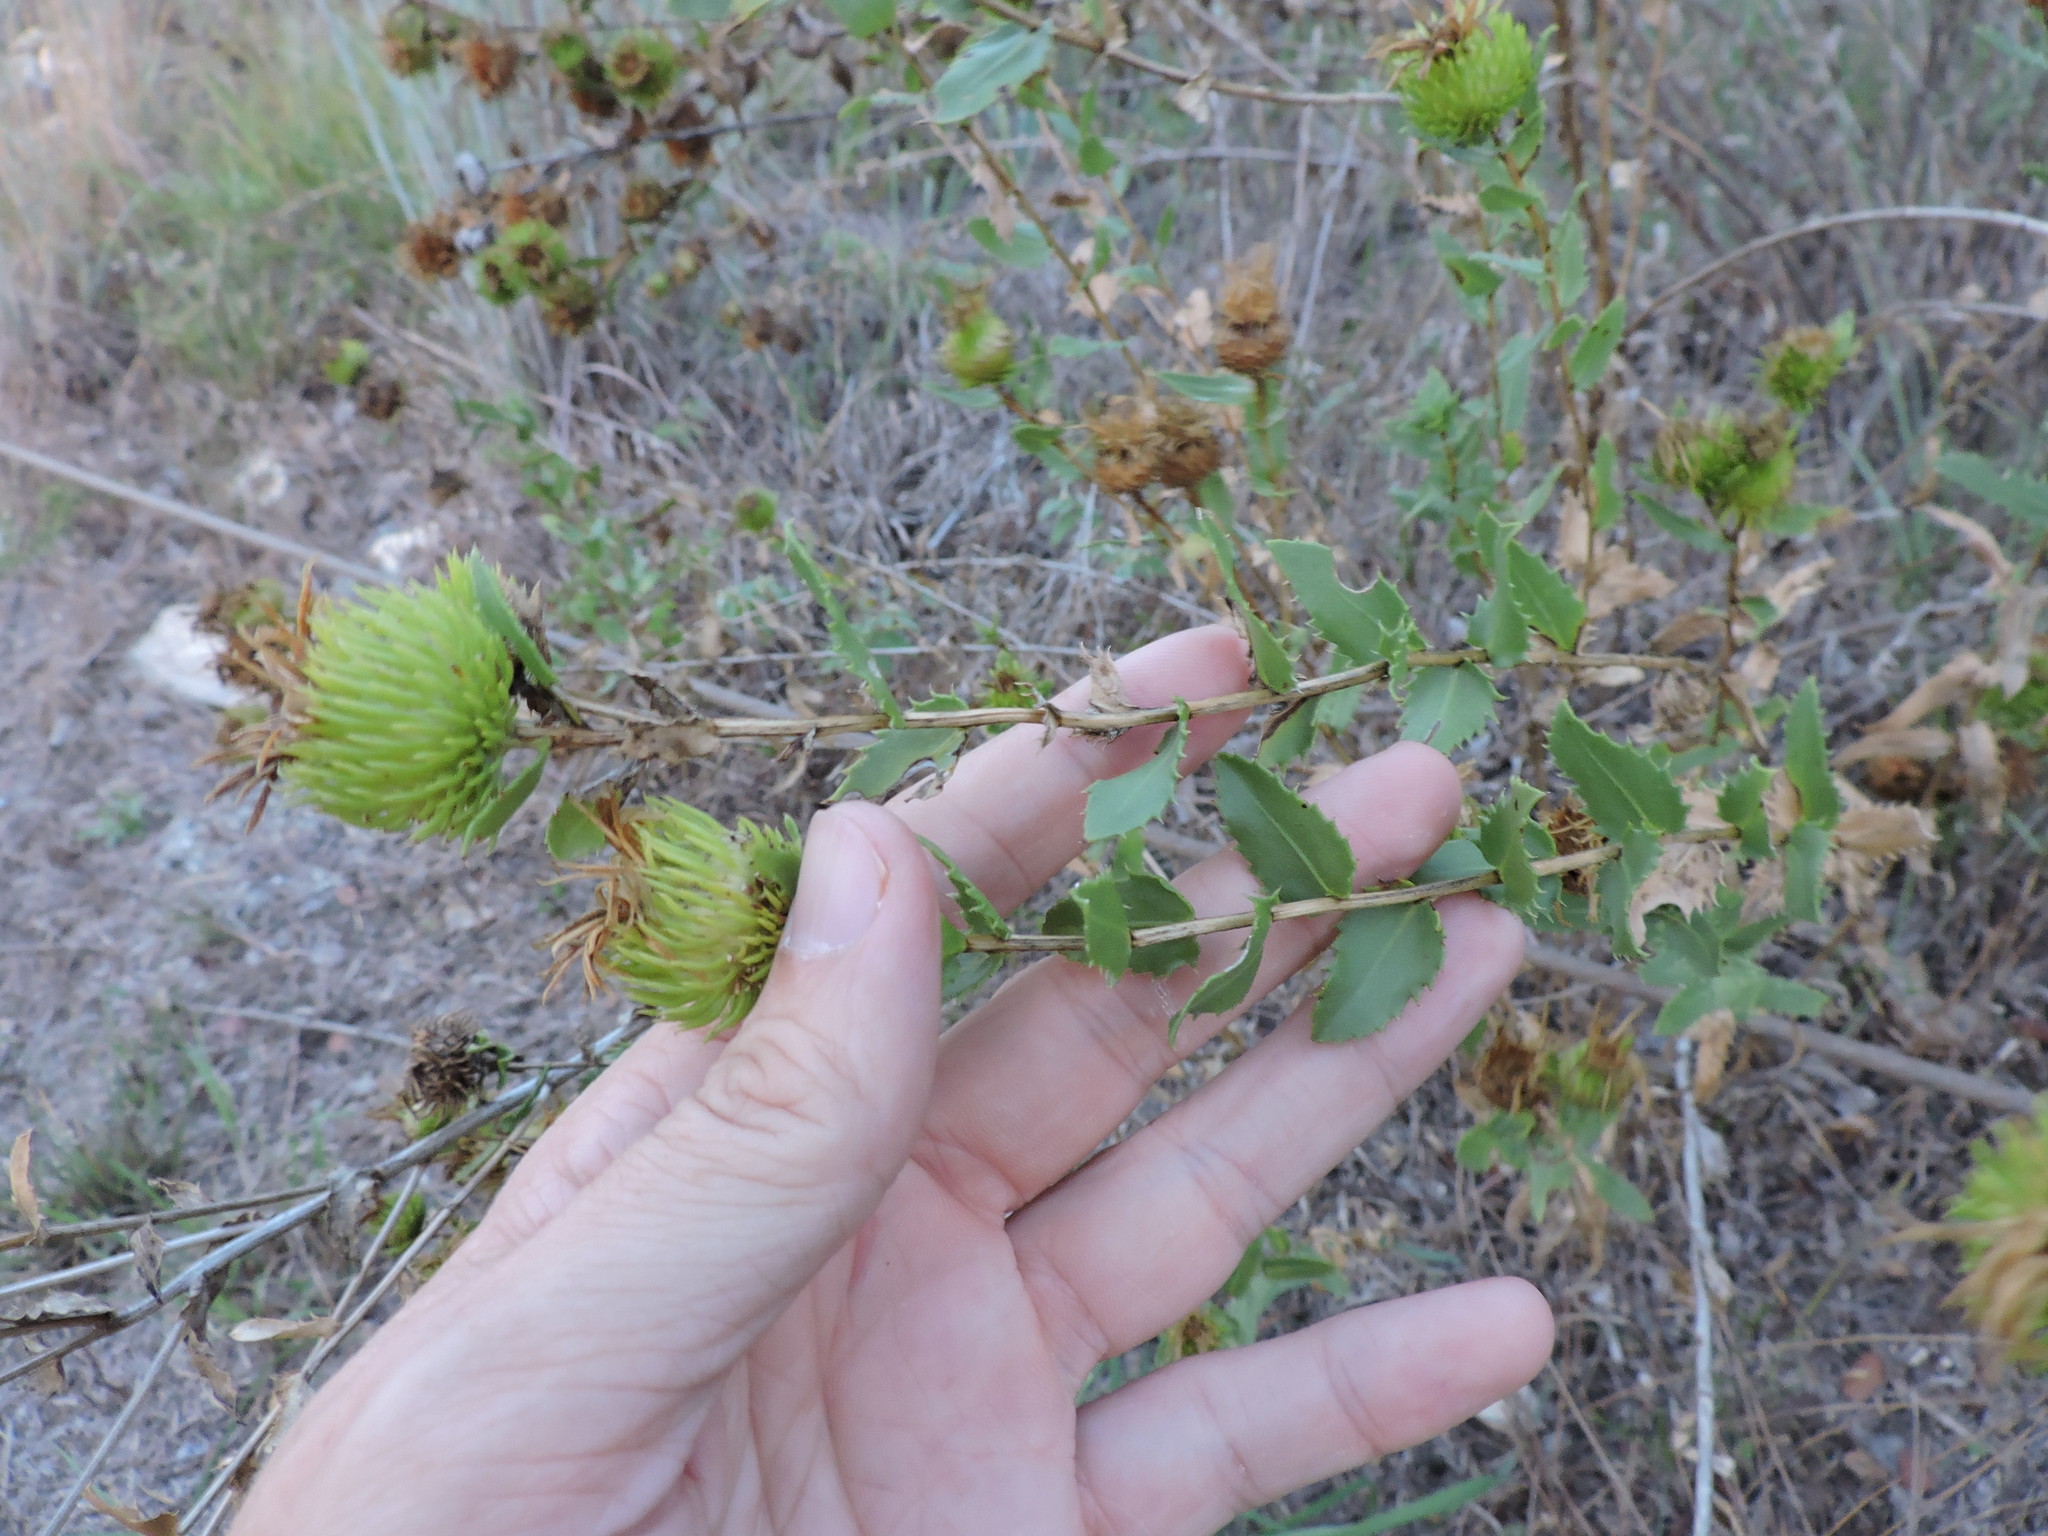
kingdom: Plantae
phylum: Tracheophyta
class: Magnoliopsida
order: Asterales
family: Asteraceae
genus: Grindelia
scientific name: Grindelia lanceolata
